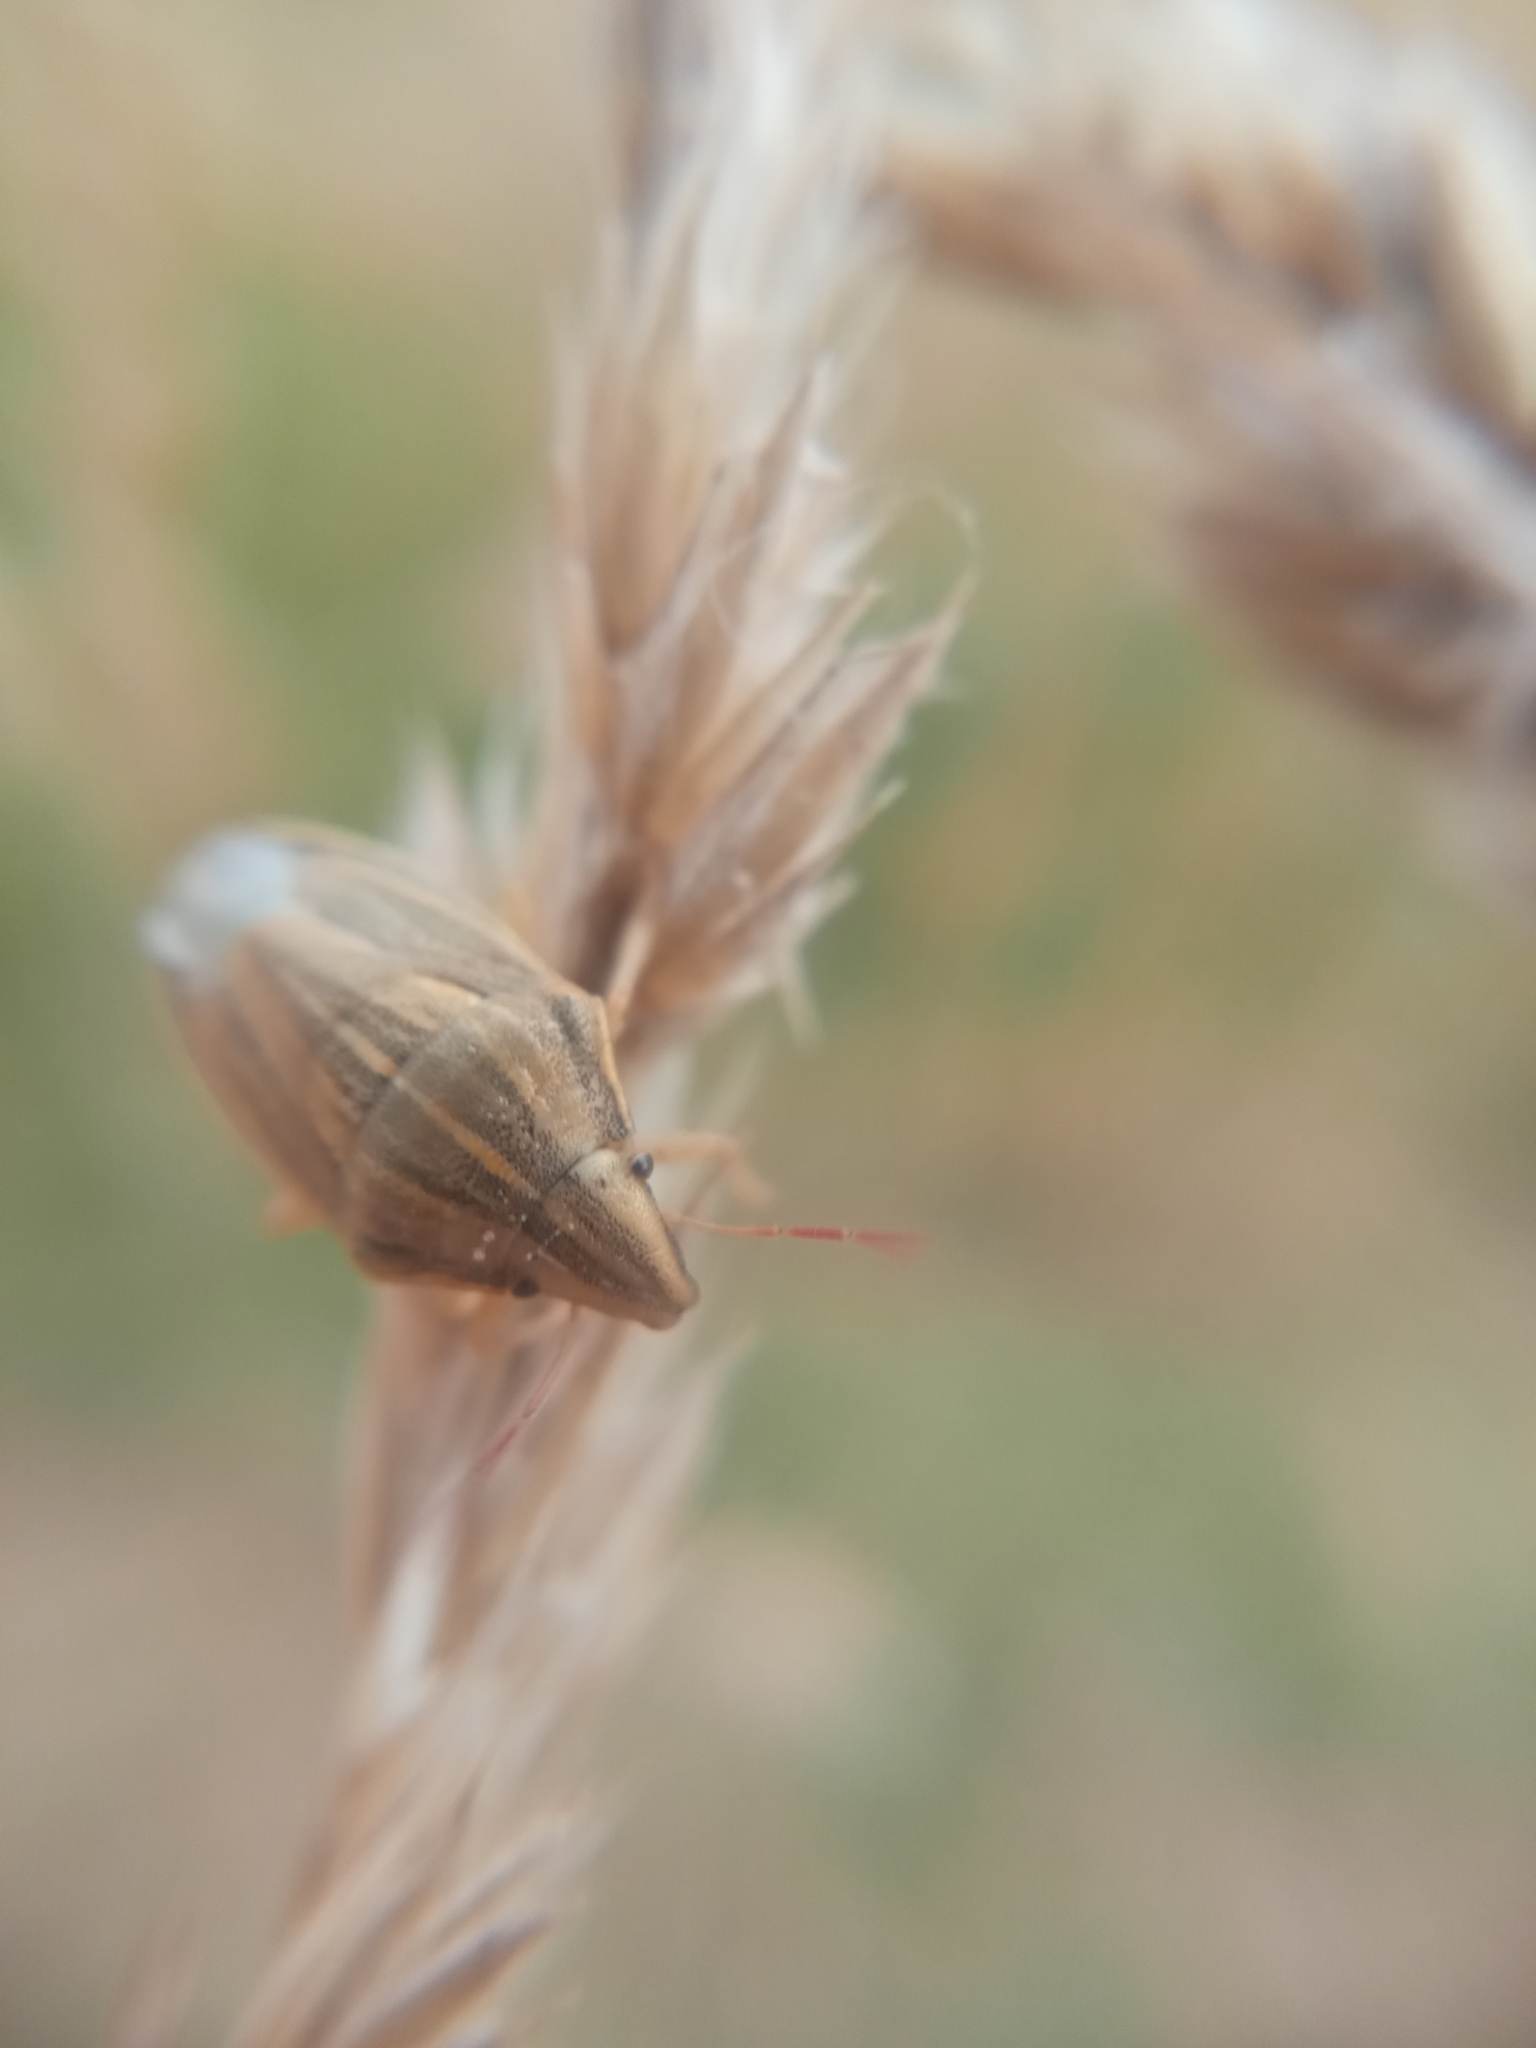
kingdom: Animalia
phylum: Arthropoda
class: Insecta
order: Hemiptera
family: Pentatomidae
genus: Aelia
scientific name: Aelia acuminata
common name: Bishop's mitre
